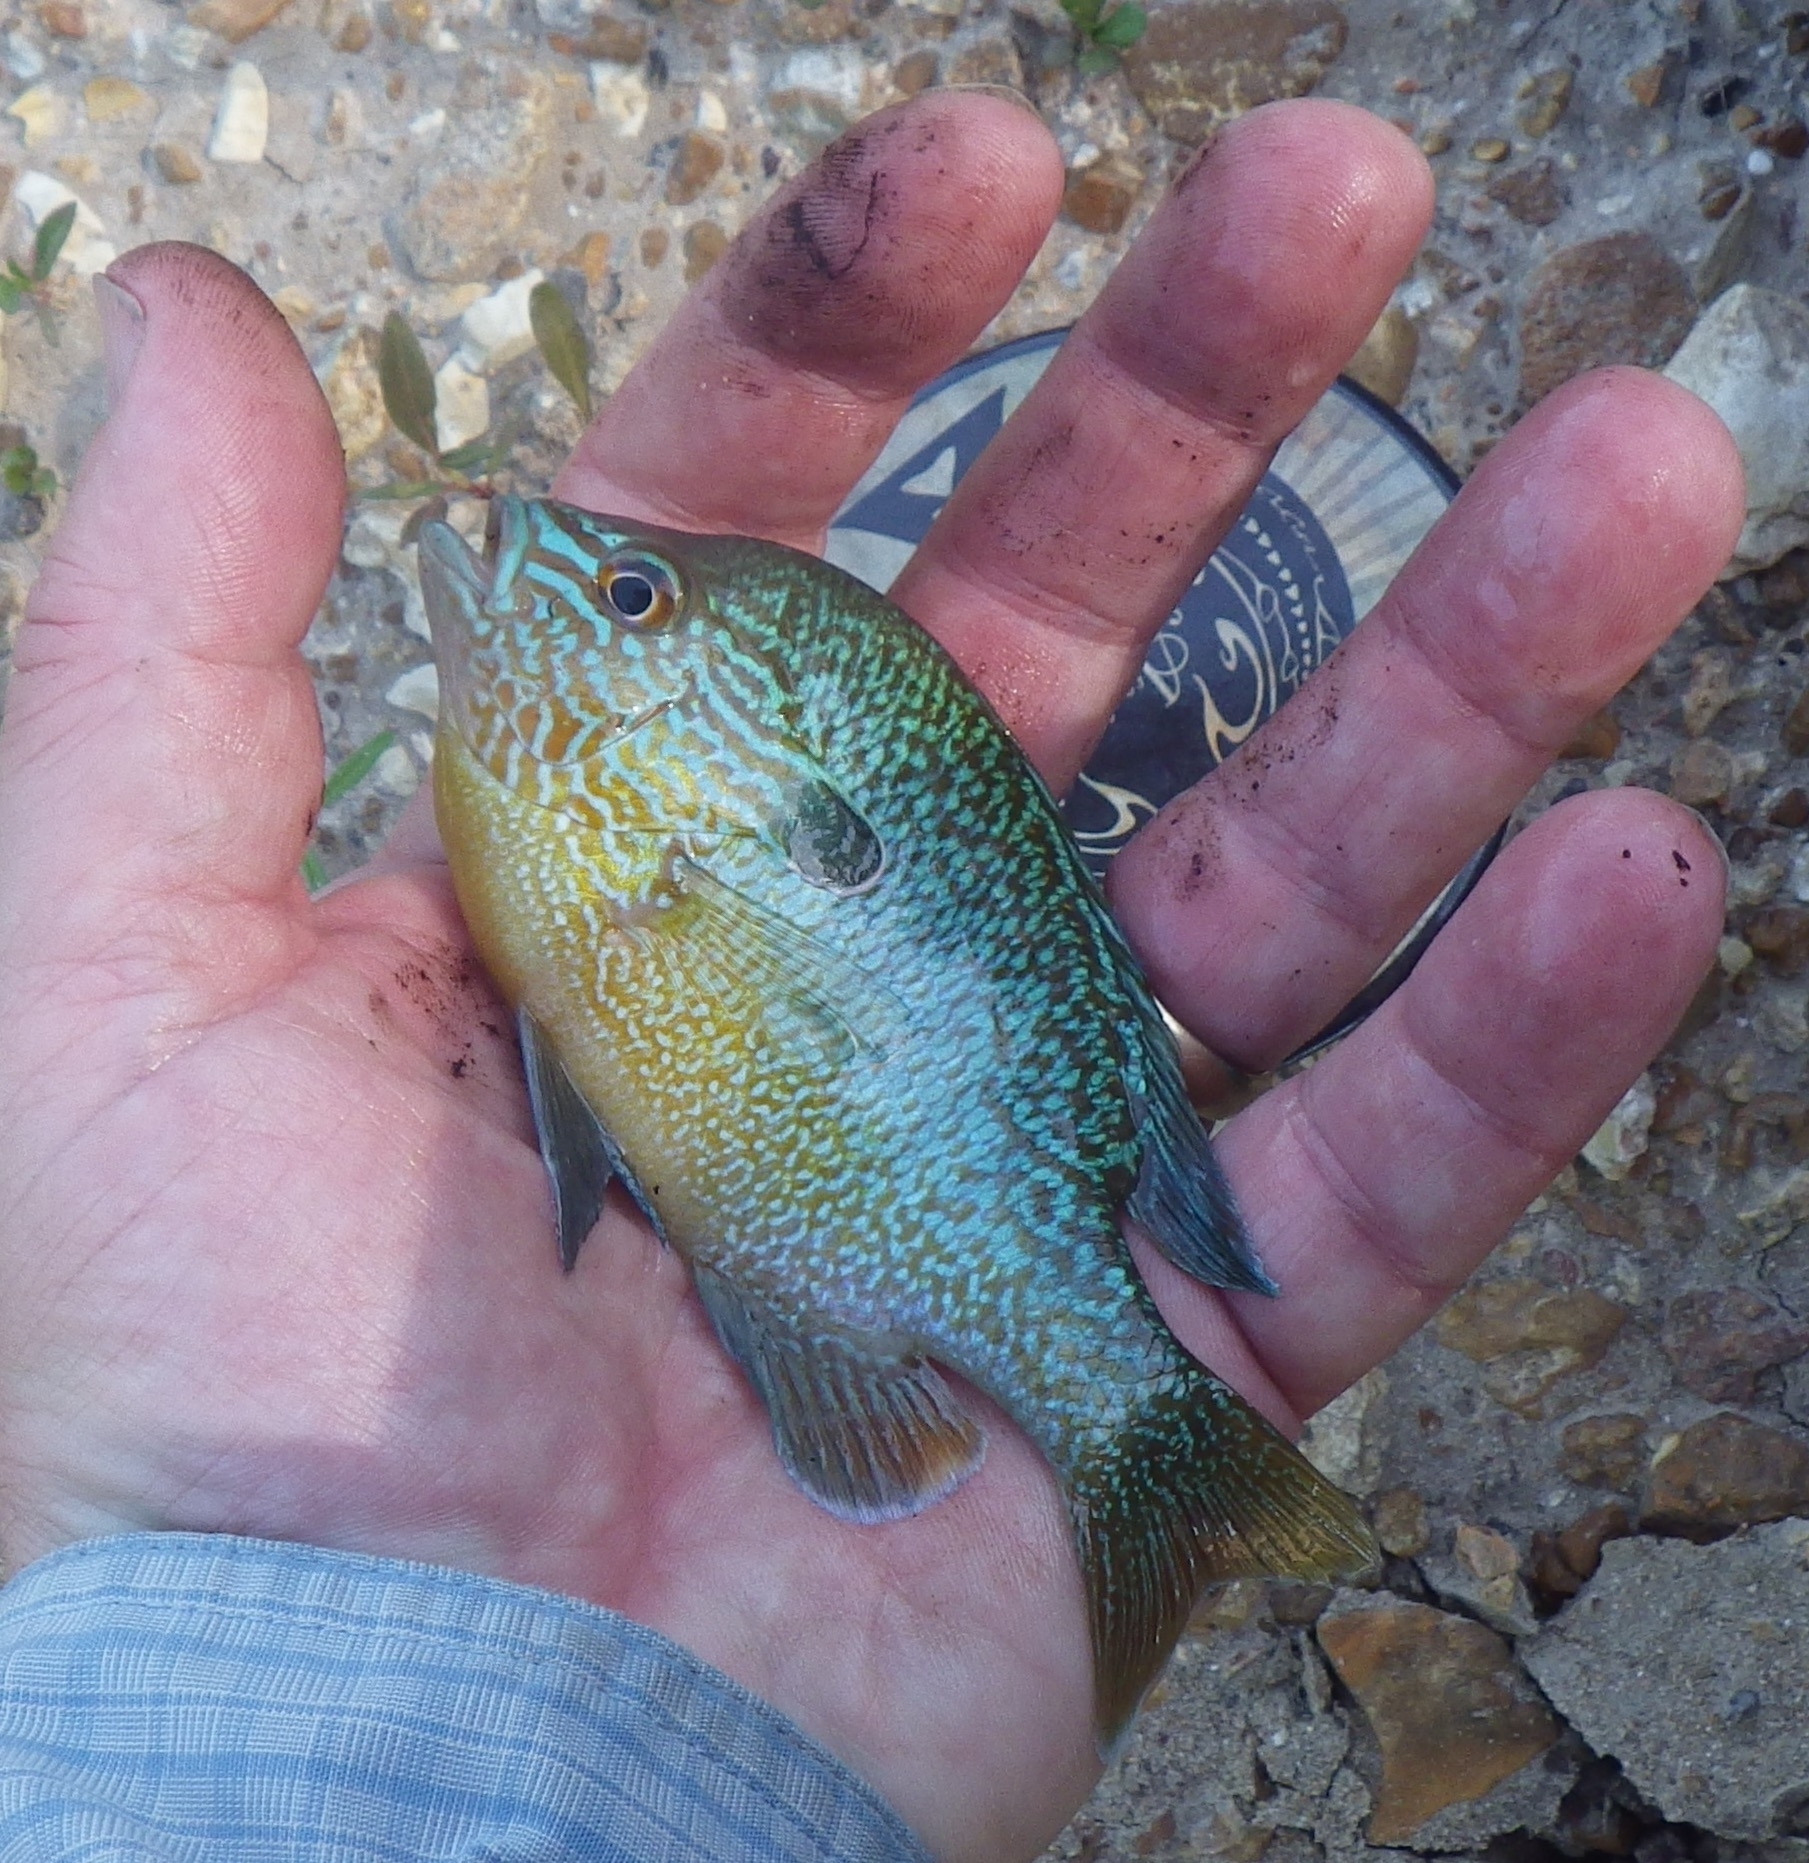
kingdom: Animalia
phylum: Chordata
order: Perciformes
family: Centrarchidae
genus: Lepomis
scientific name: Lepomis megalotis
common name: Longear sunfish
